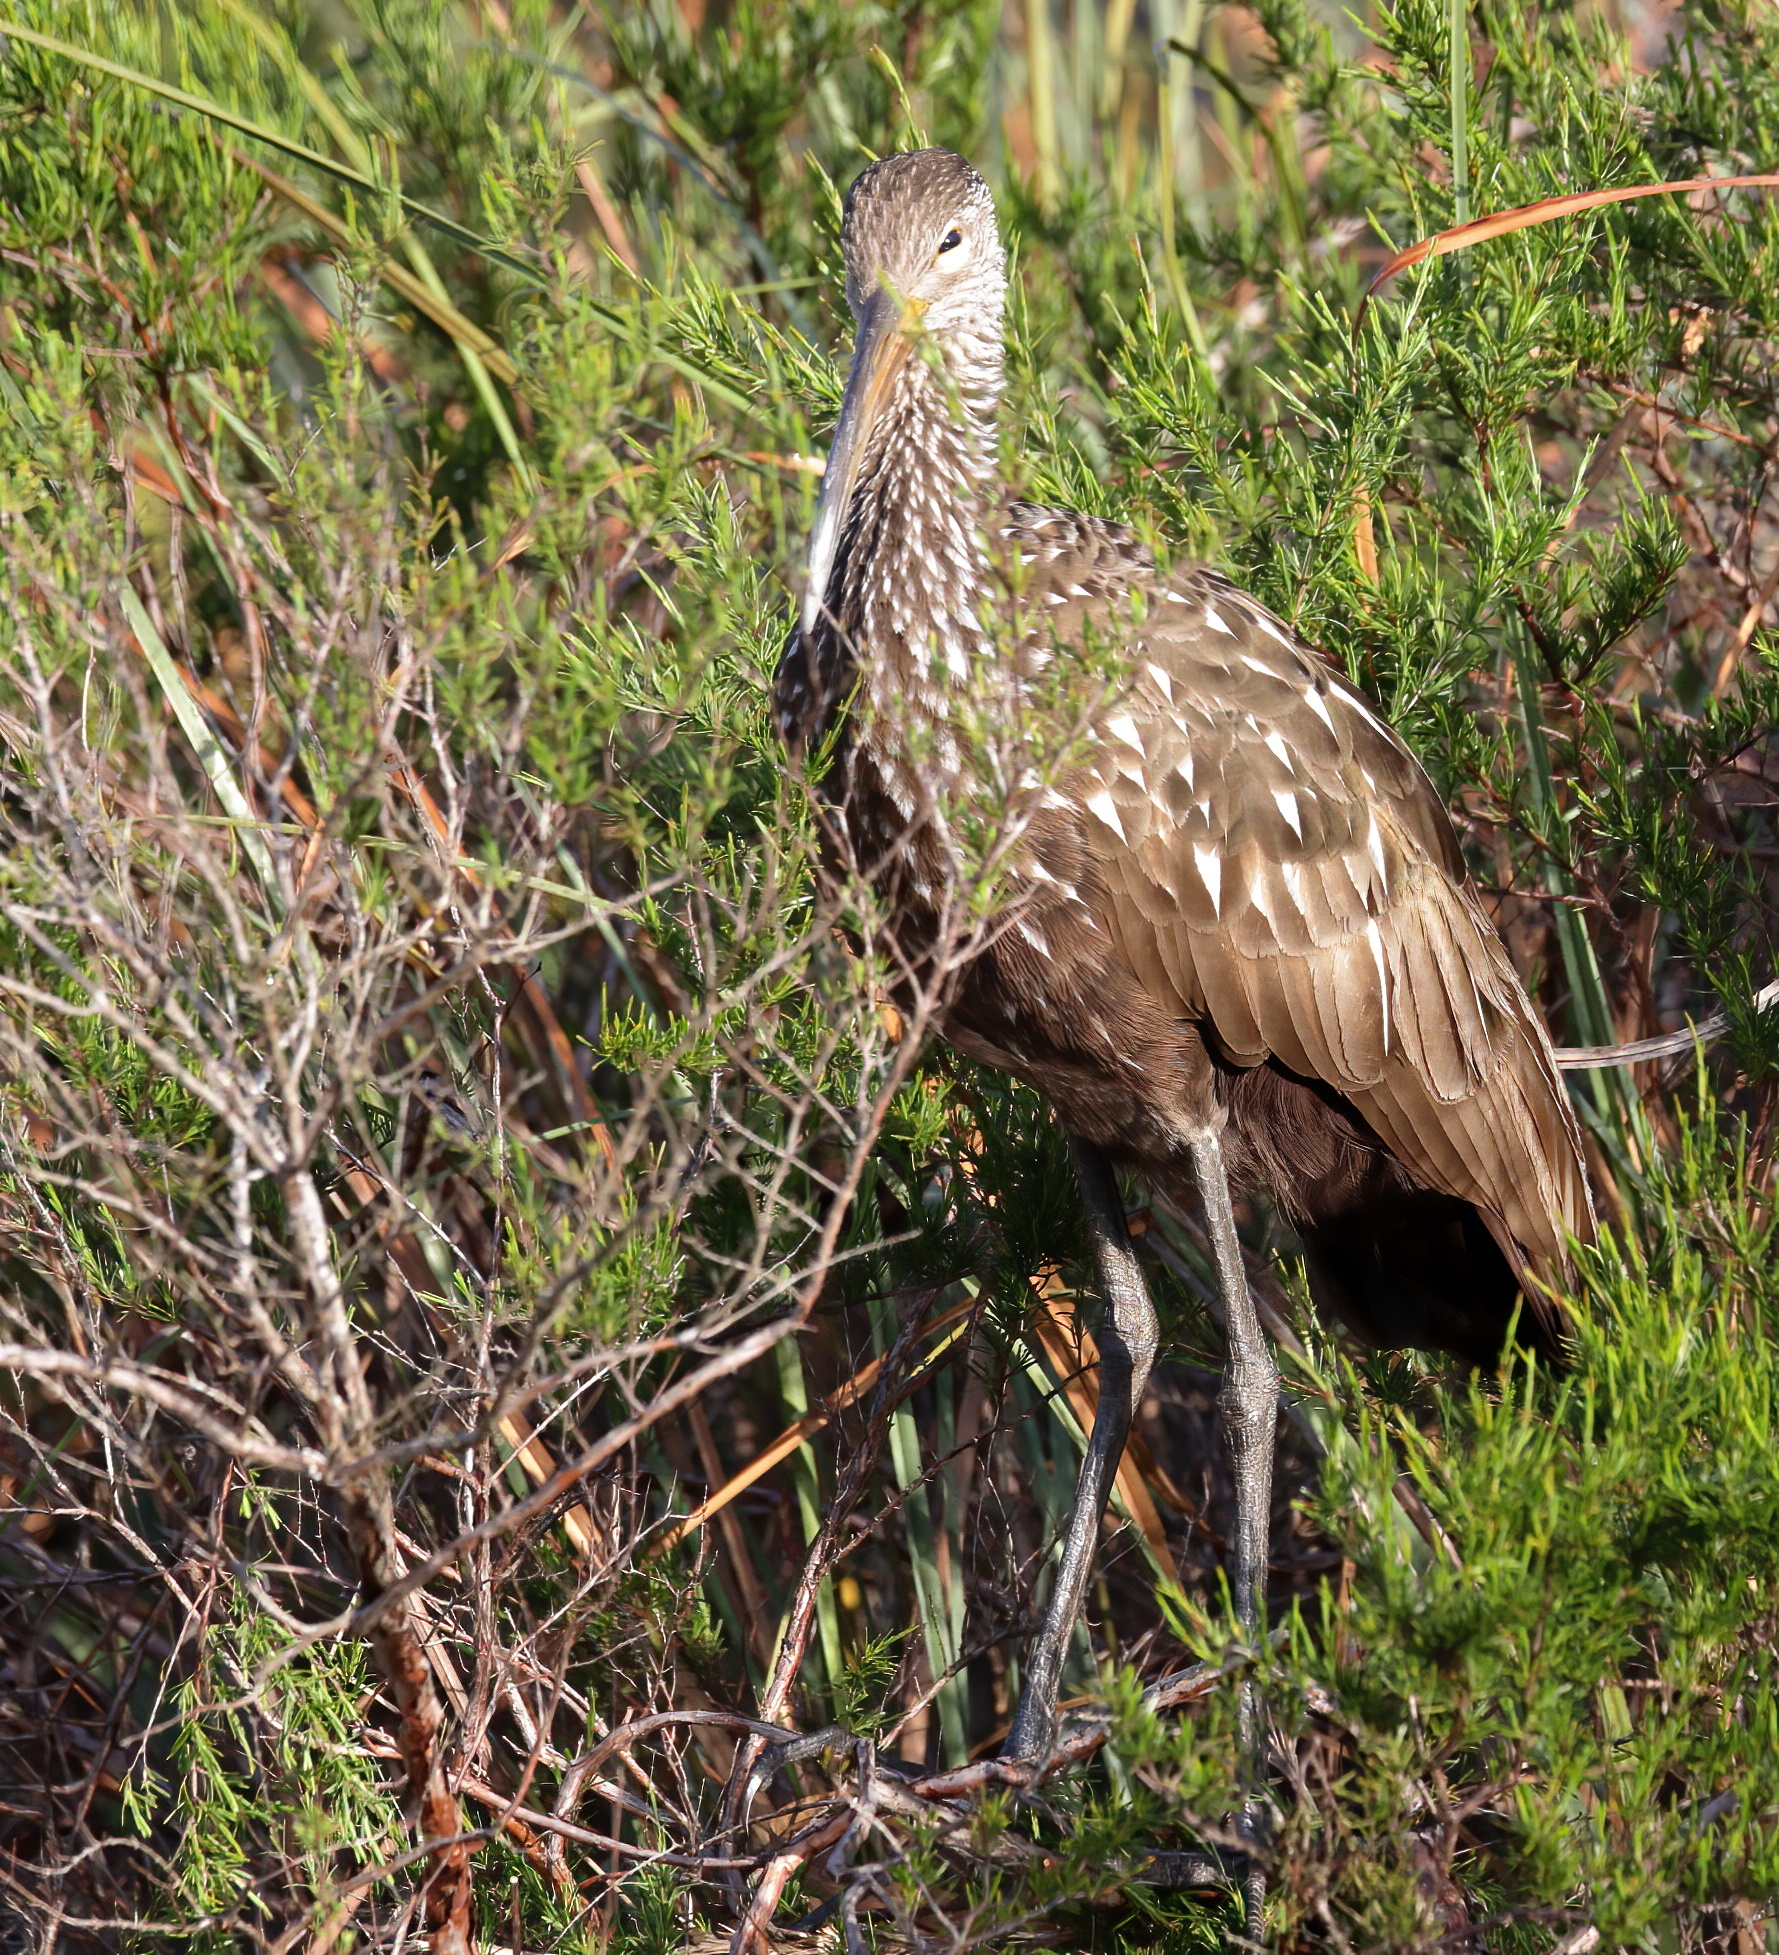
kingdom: Animalia
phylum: Chordata
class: Aves
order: Gruiformes
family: Aramidae
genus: Aramus
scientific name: Aramus guarauna
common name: Limpkin
